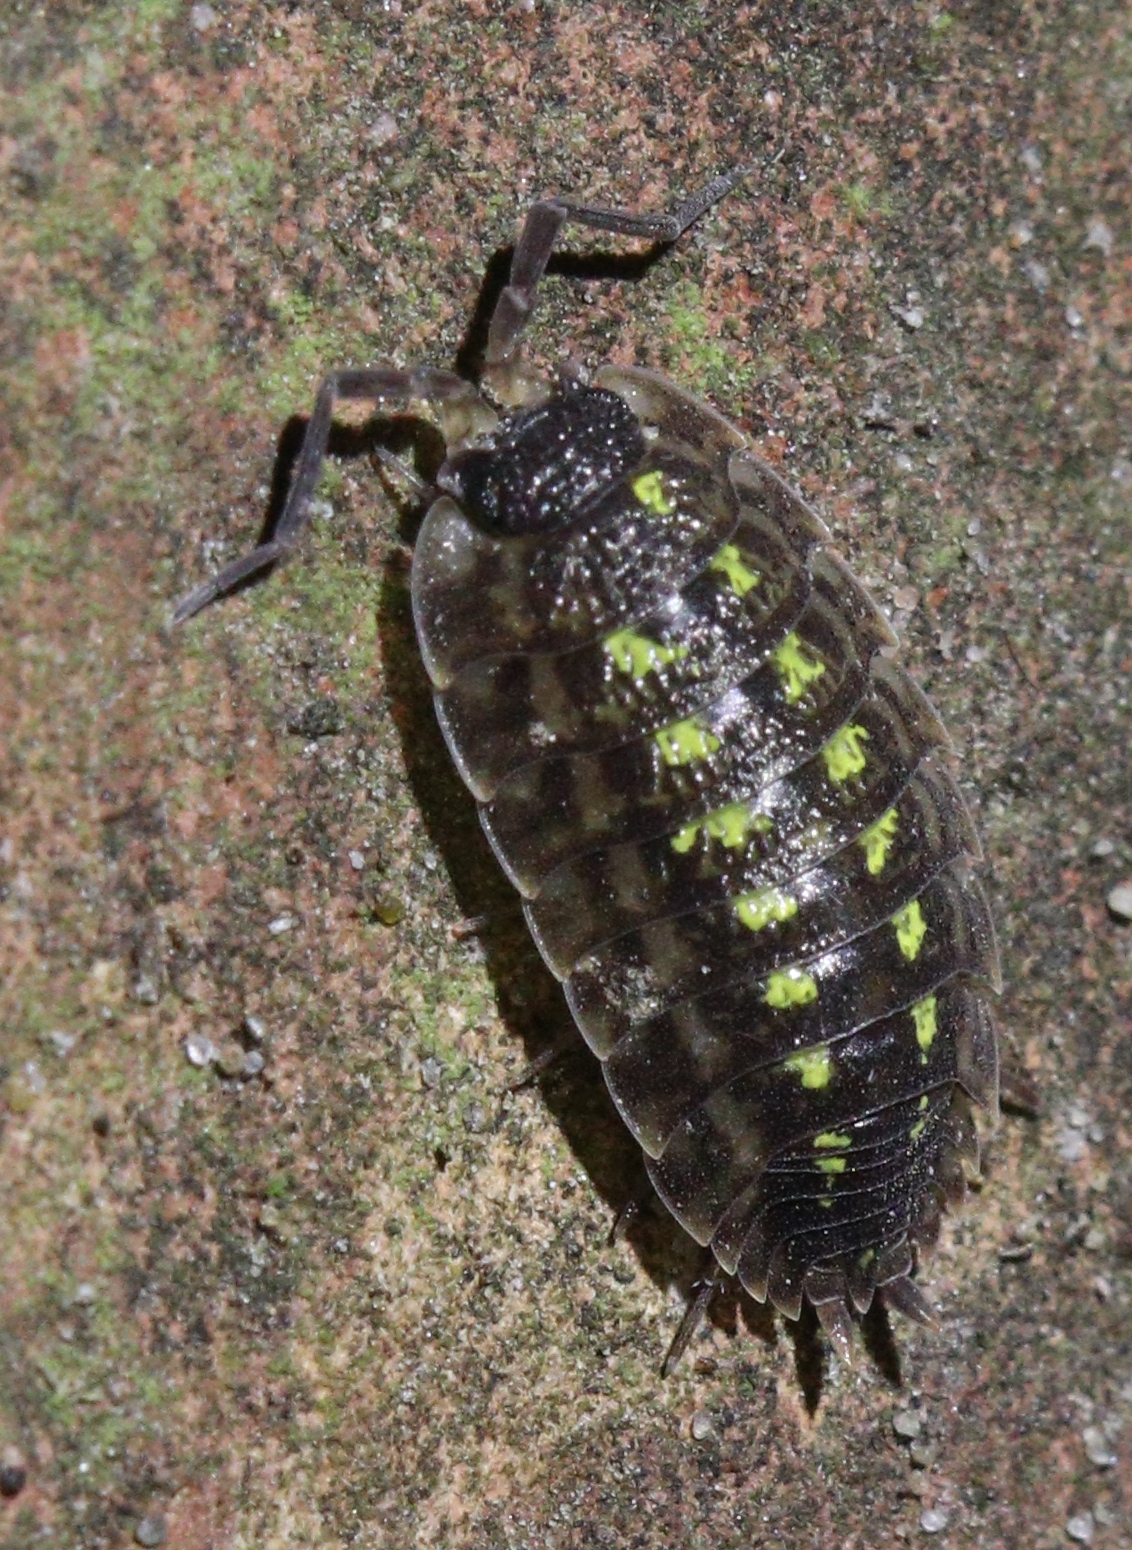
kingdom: Animalia
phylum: Arthropoda
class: Malacostraca
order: Isopoda
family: Porcellionidae
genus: Porcellio
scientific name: Porcellio spinicornis
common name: Painted woodlouse
